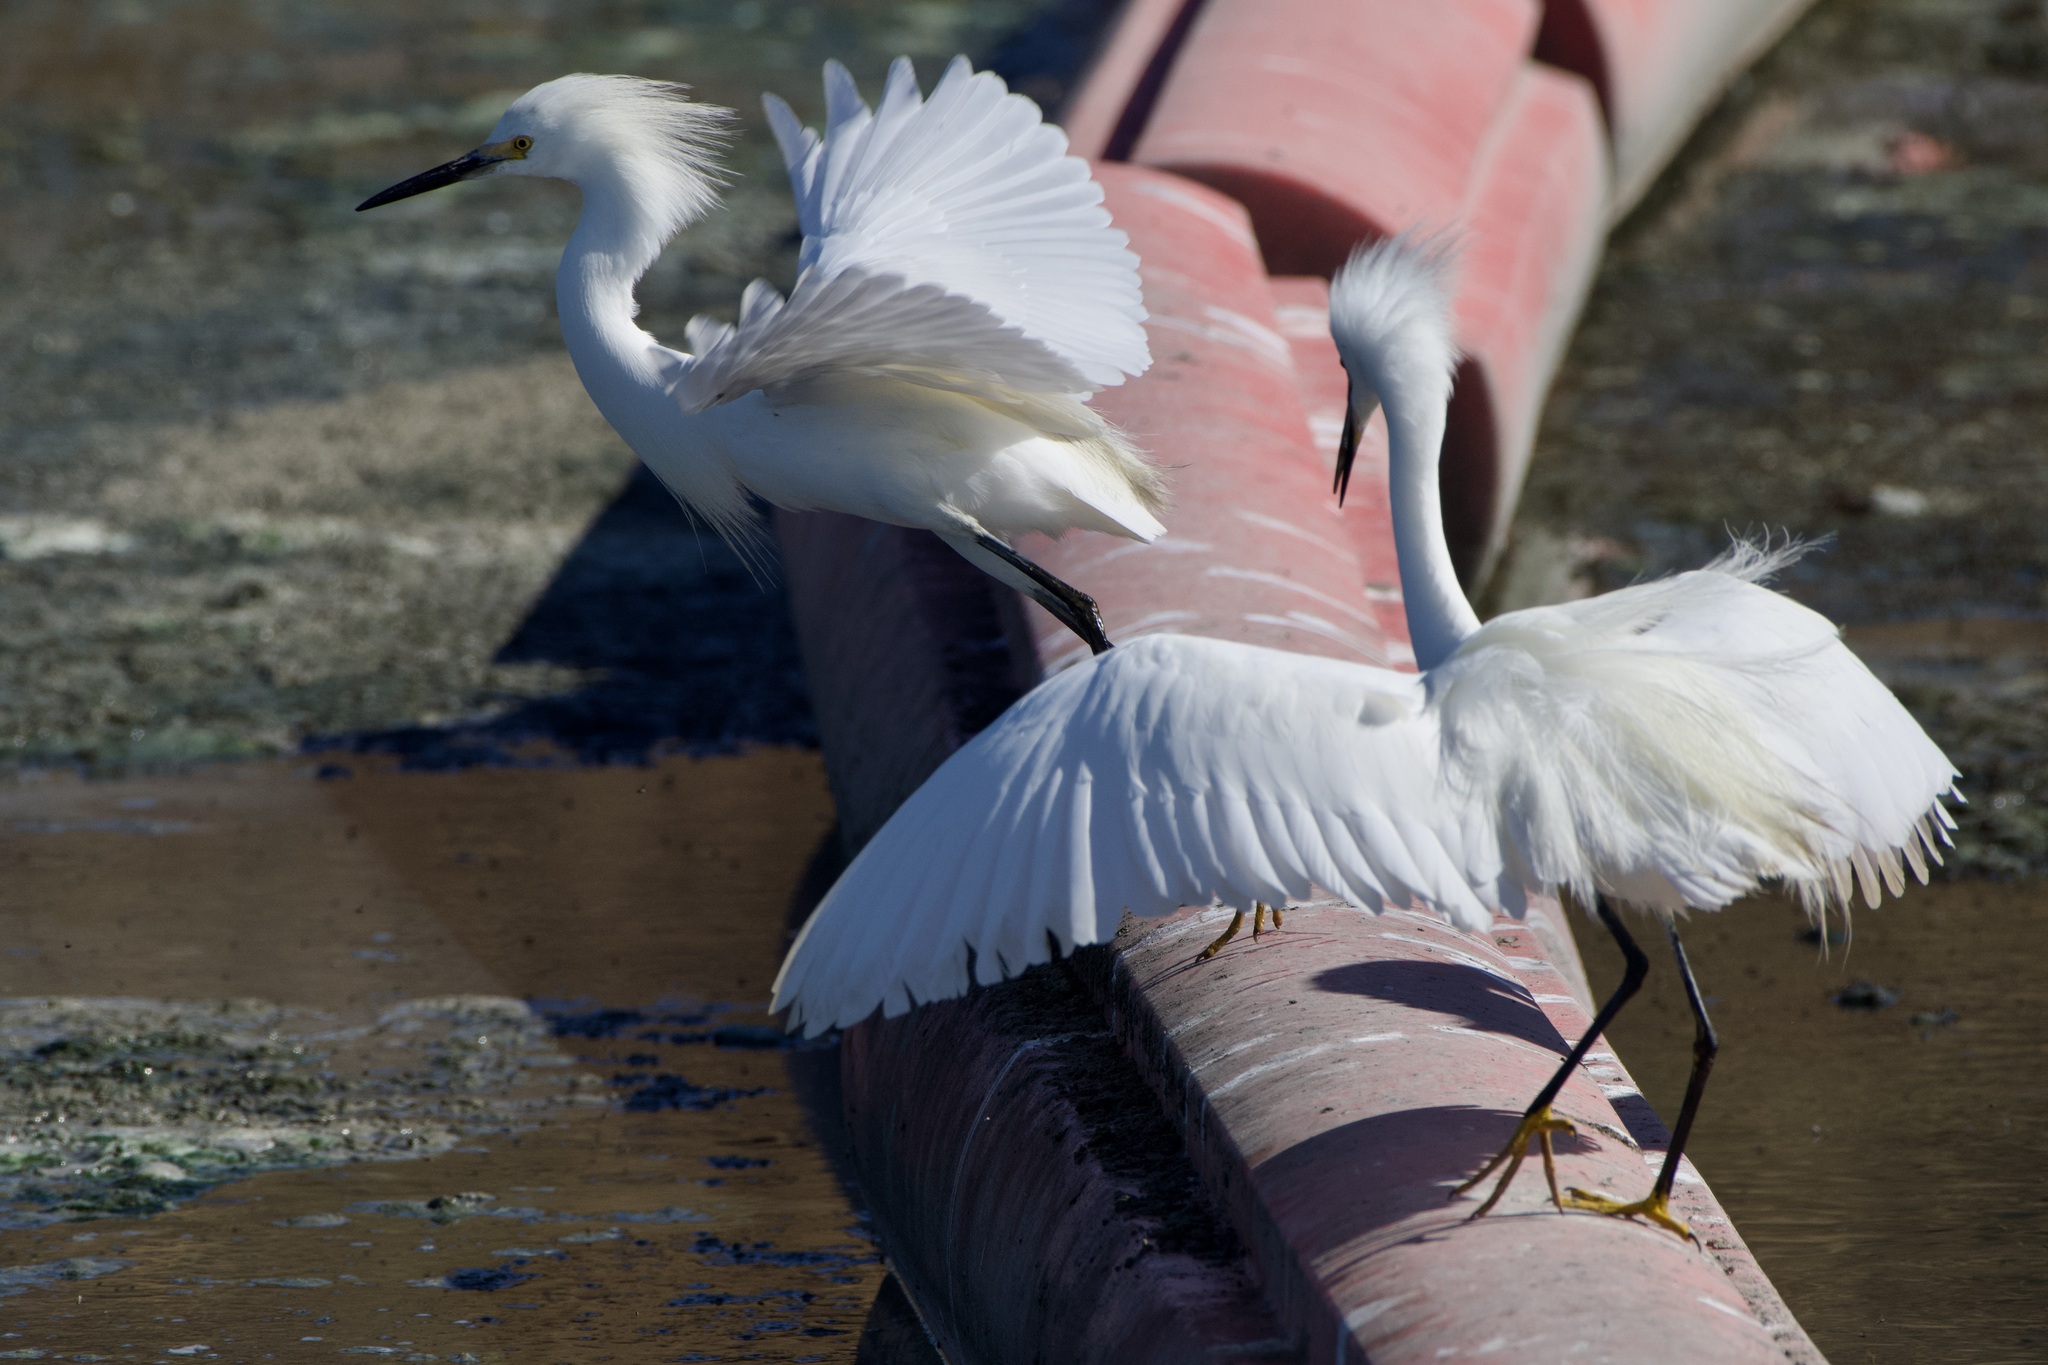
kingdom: Animalia
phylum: Chordata
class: Aves
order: Pelecaniformes
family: Ardeidae
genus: Egretta
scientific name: Egretta thula
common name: Snowy egret
